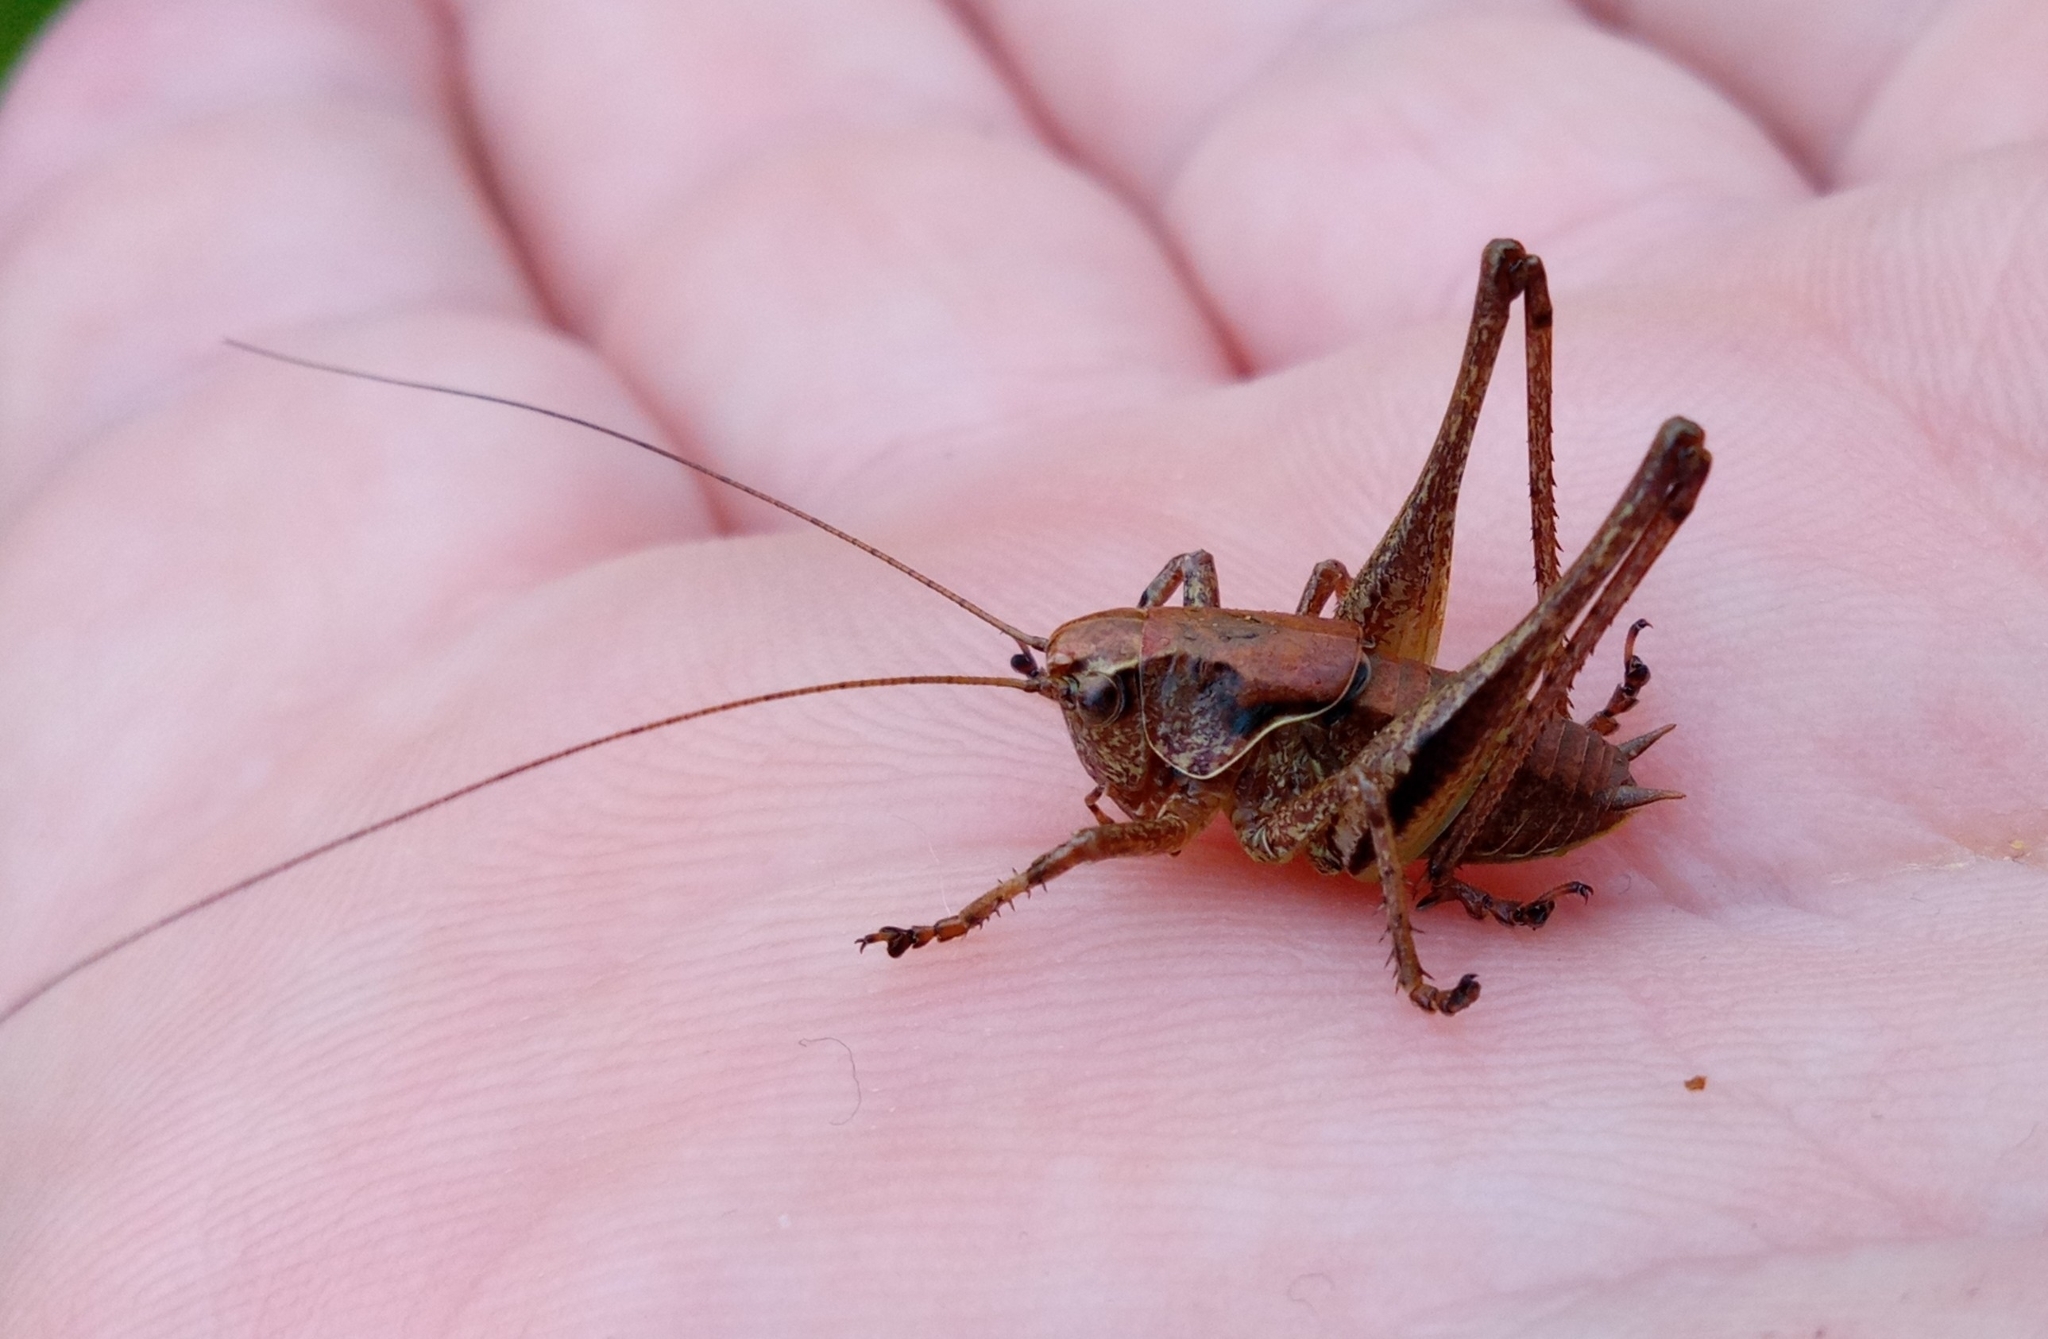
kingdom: Animalia
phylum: Arthropoda
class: Insecta
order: Orthoptera
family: Tettigoniidae
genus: Pholidoptera
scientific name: Pholidoptera griseoaptera
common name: Dark bush-cricket
